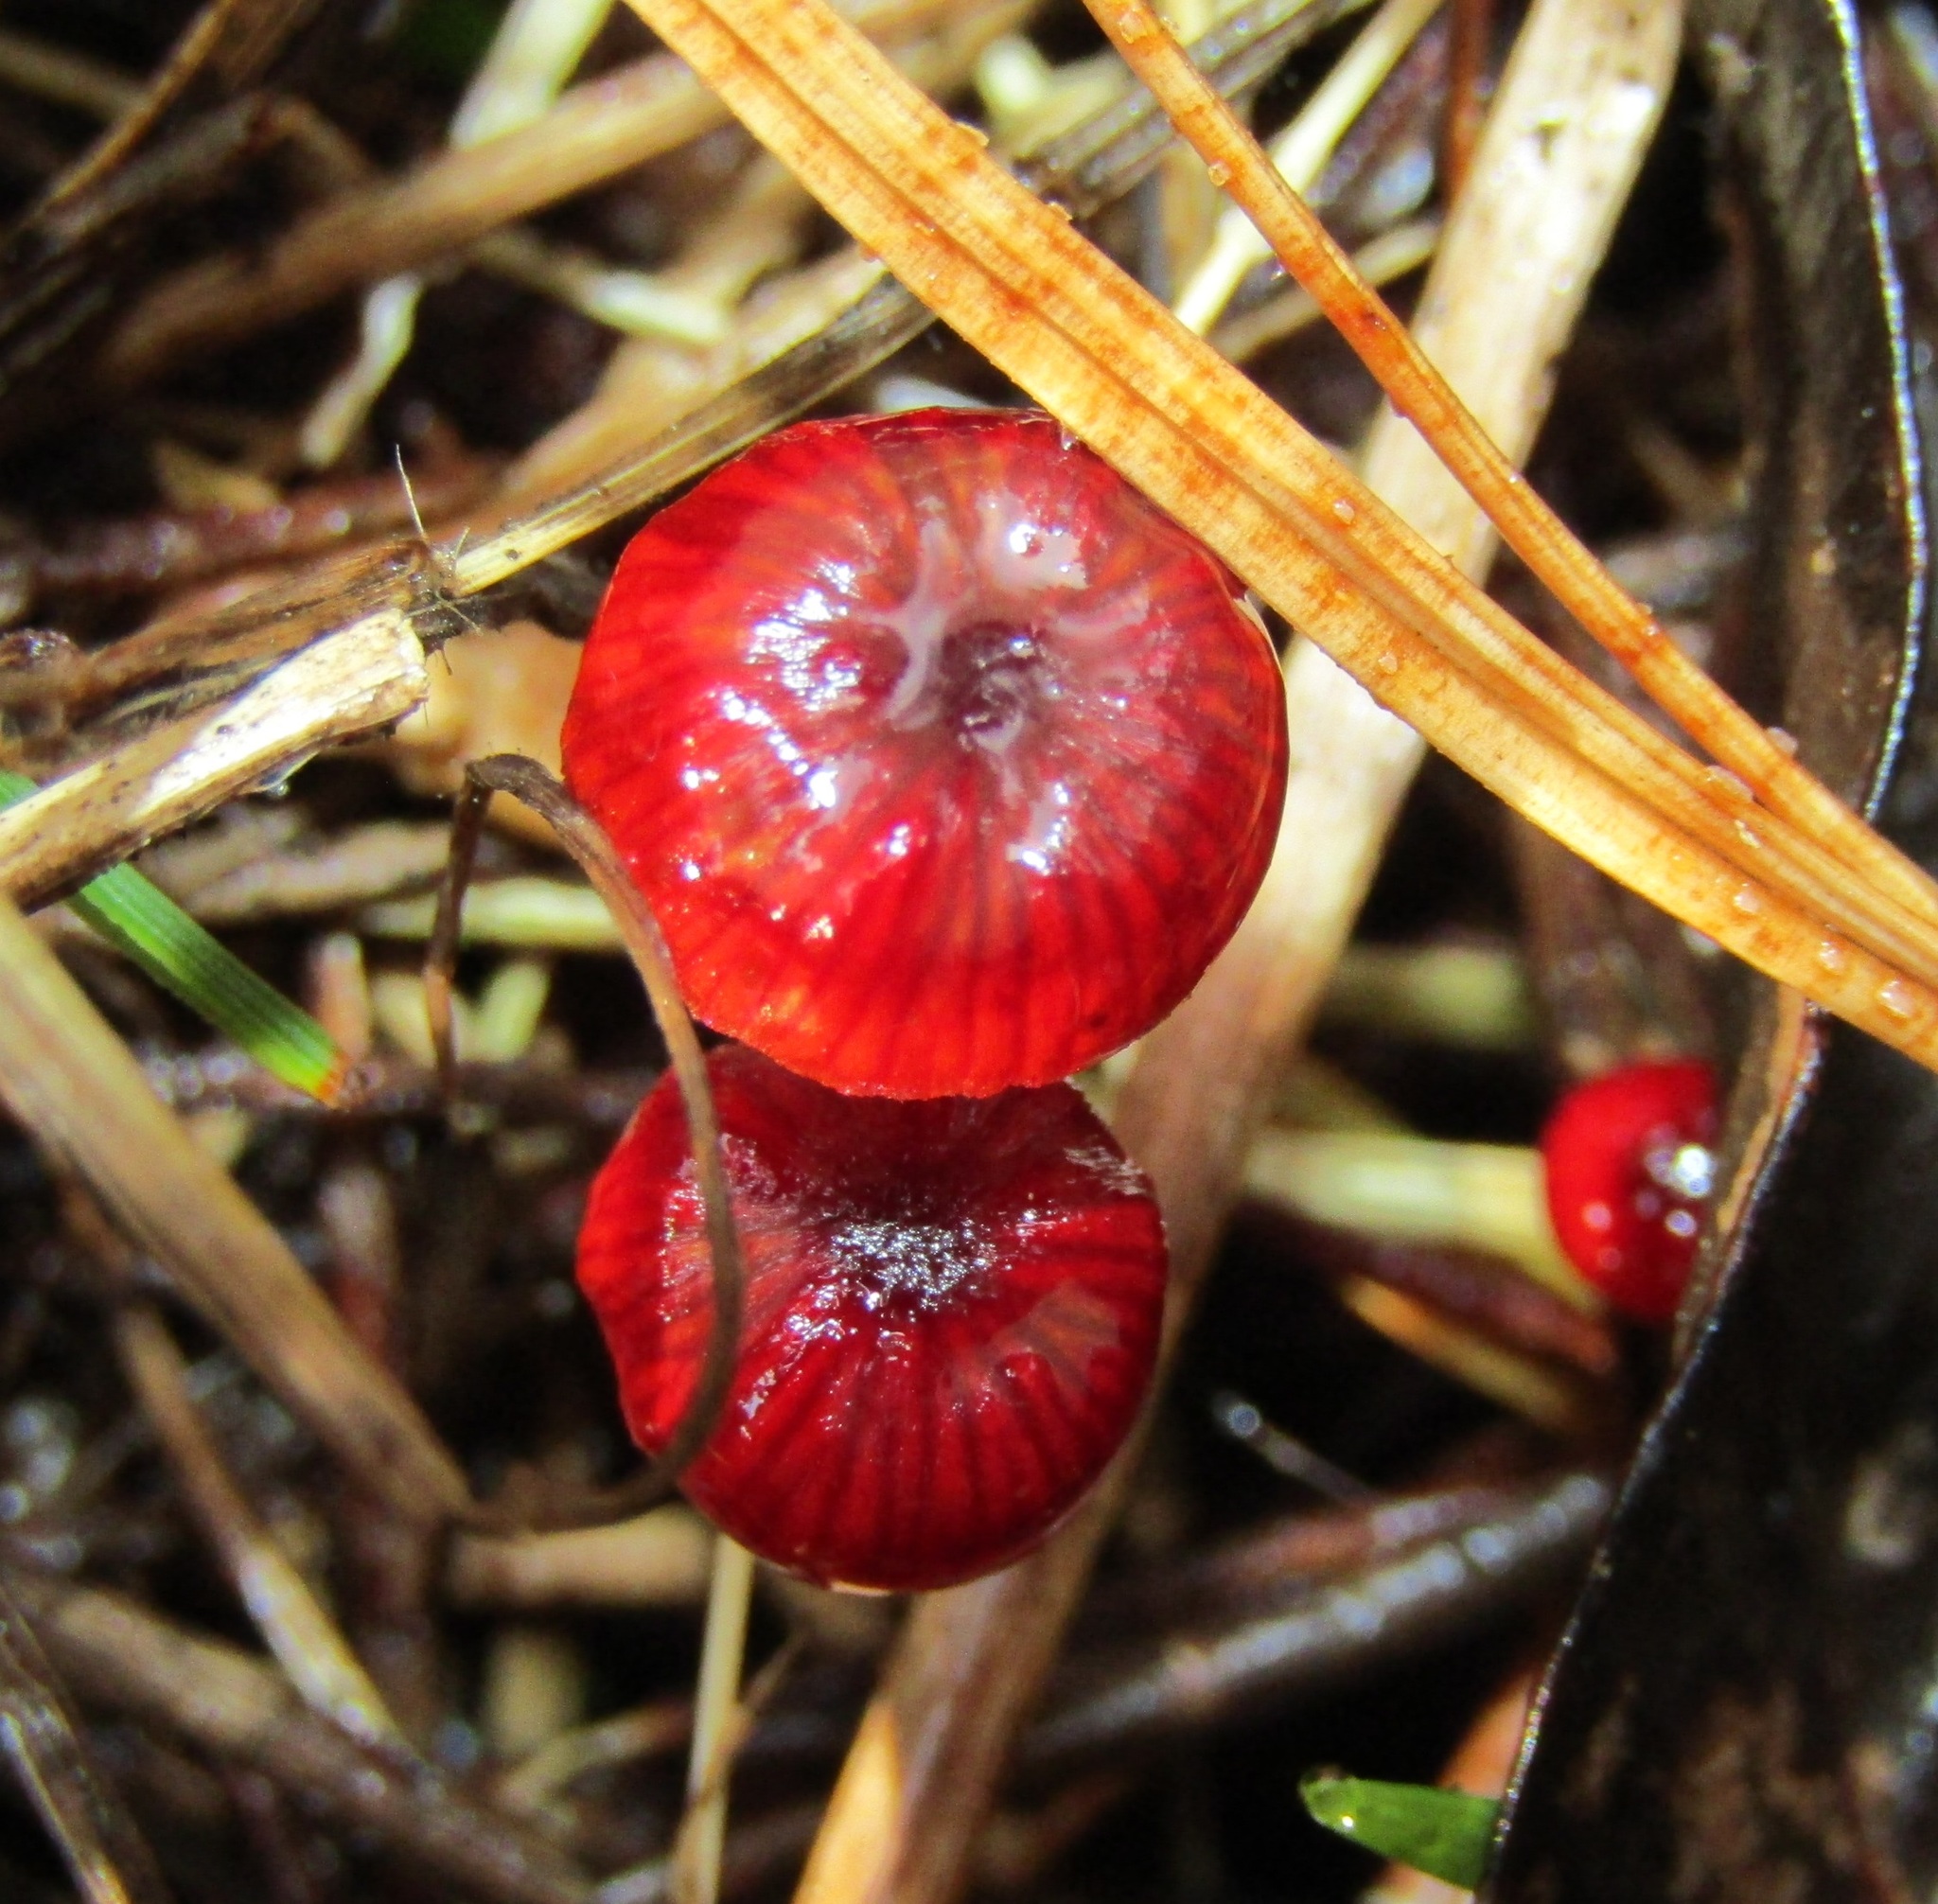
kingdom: Fungi
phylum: Basidiomycota
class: Agaricomycetes
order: Agaricales
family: Mycenaceae
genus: Cruentomycena
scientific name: Cruentomycena viscidocruenta
